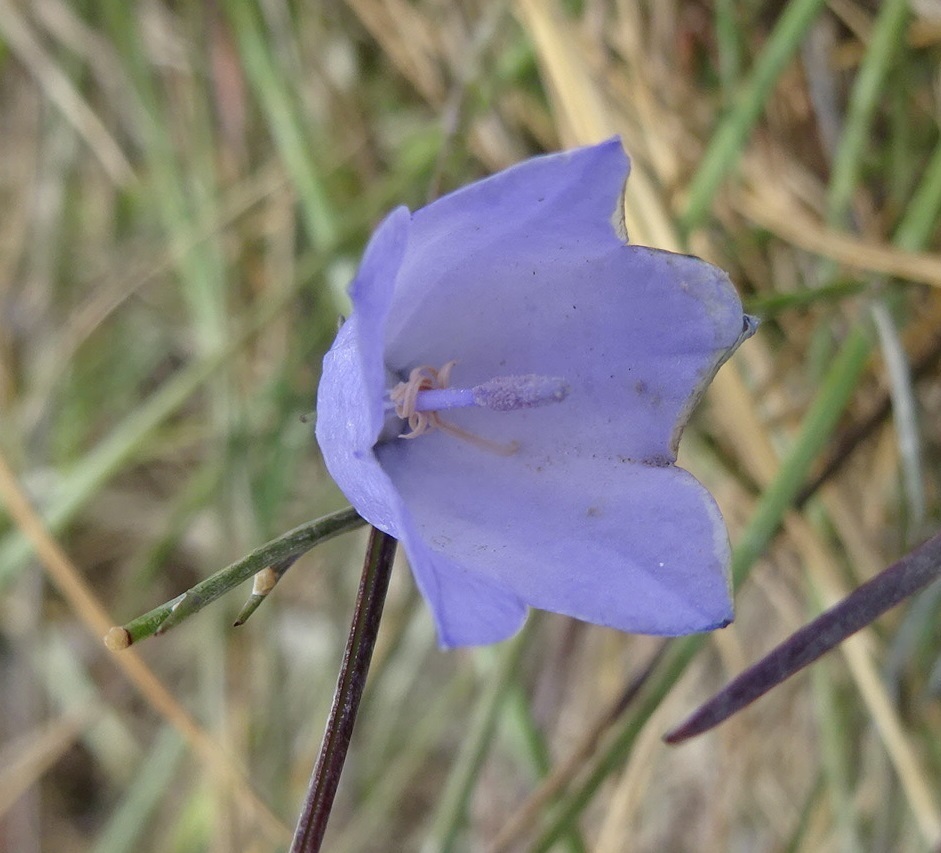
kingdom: Plantae
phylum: Tracheophyta
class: Magnoliopsida
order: Asterales
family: Campanulaceae
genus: Campanula
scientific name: Campanula rotundifolia
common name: Harebell
